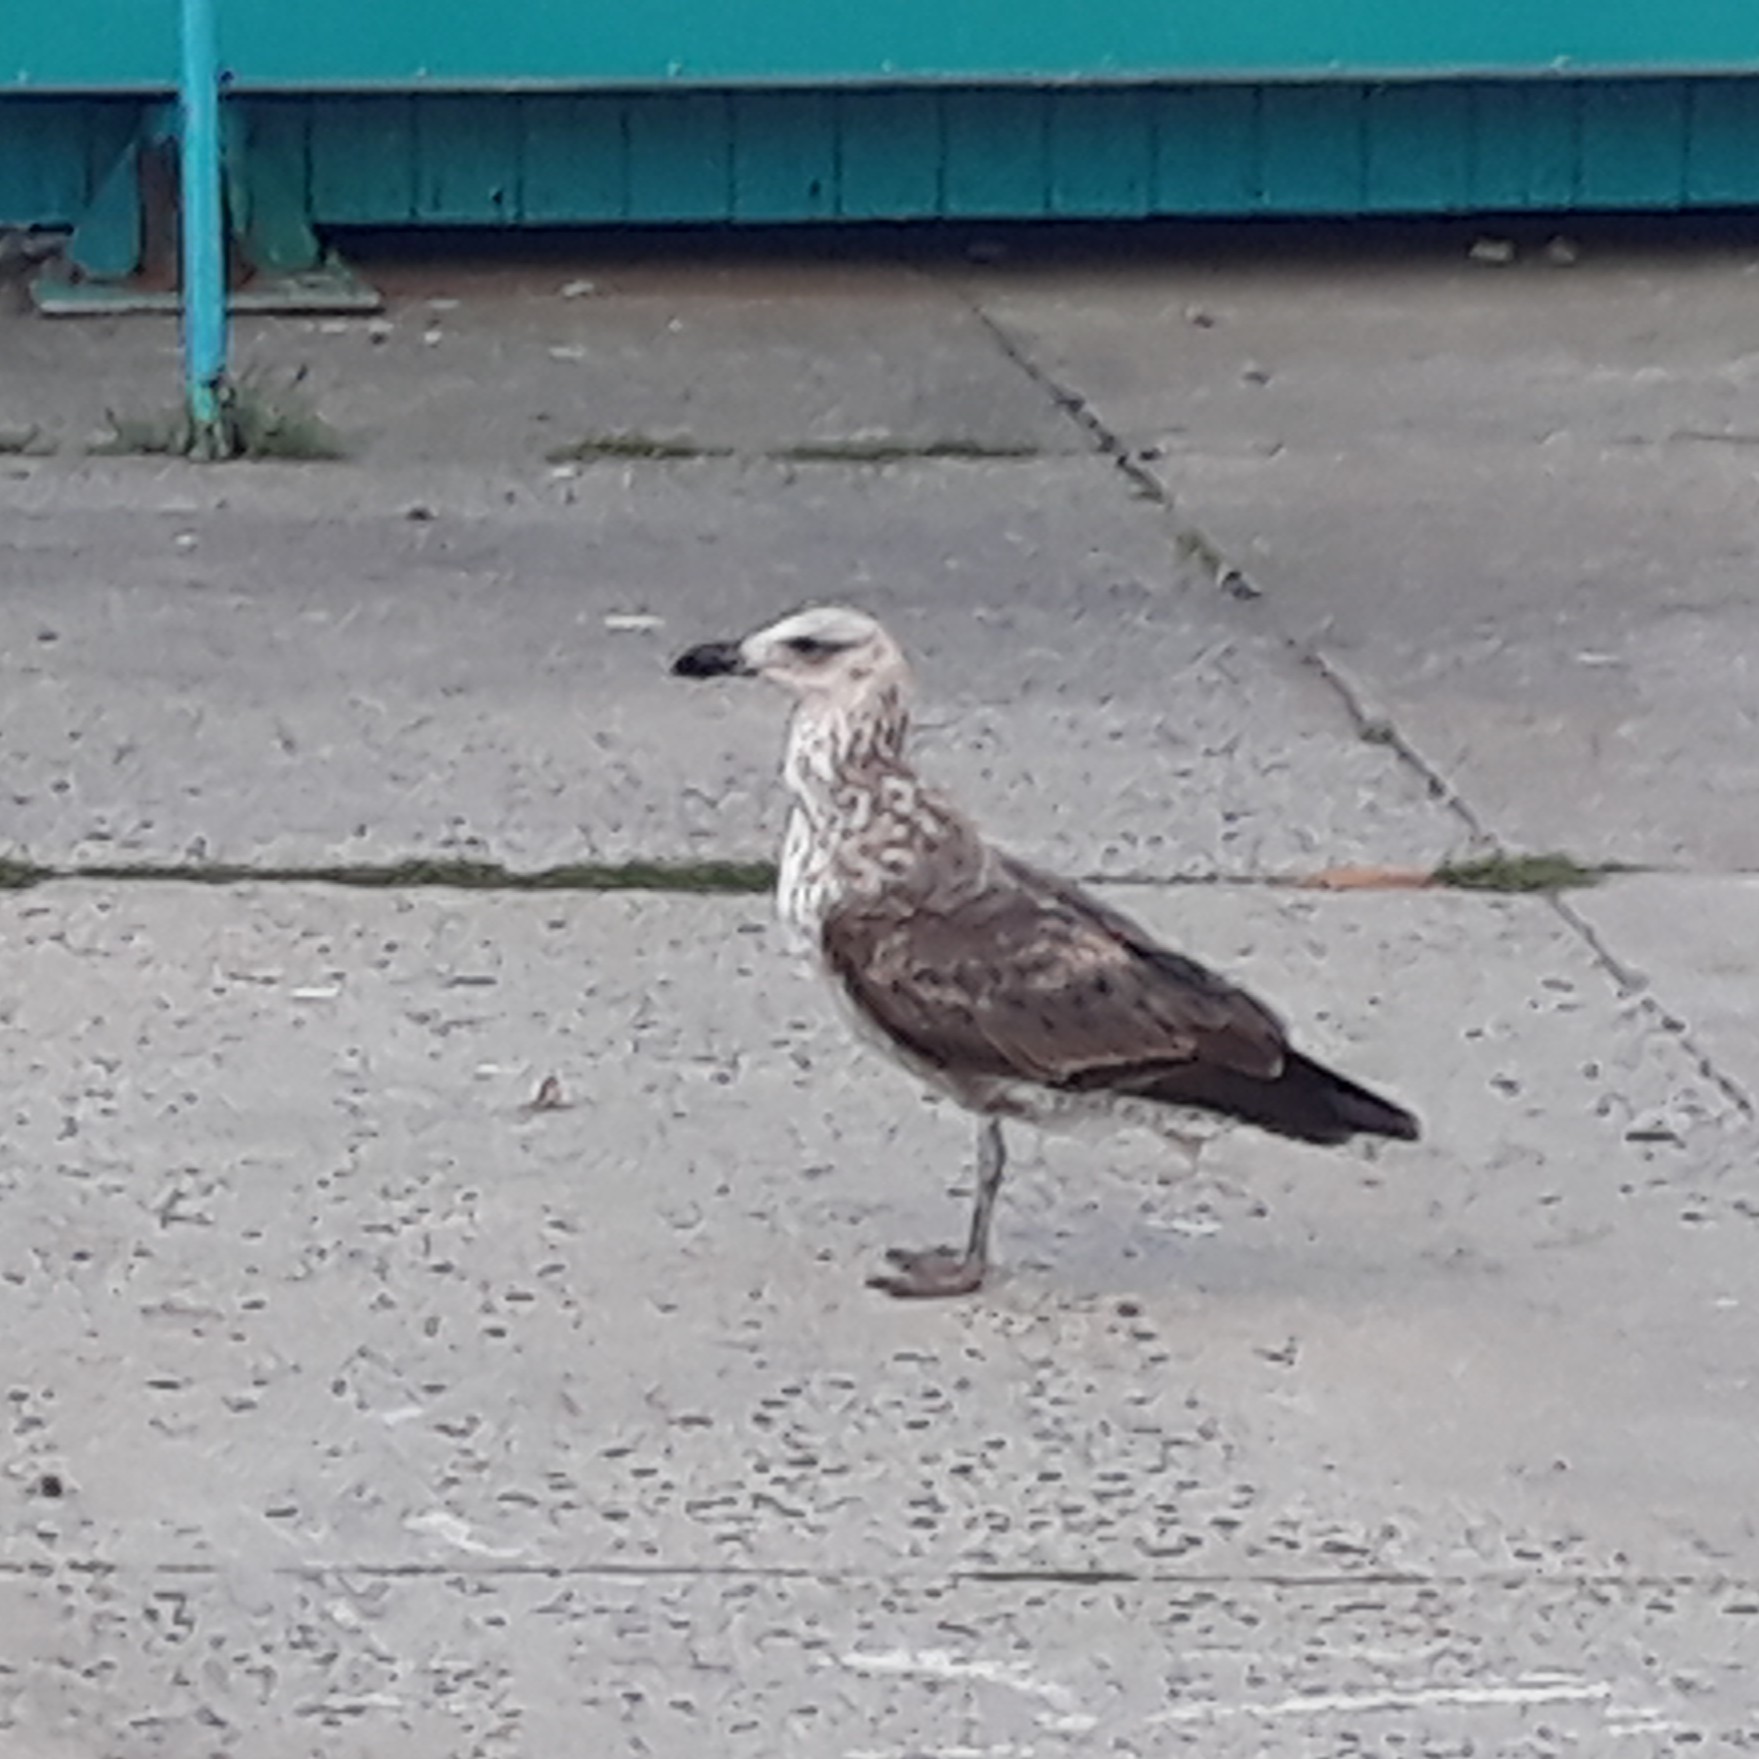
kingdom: Animalia
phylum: Chordata
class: Aves
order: Charadriiformes
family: Laridae
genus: Larus
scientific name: Larus dominicanus
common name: Kelp gull
